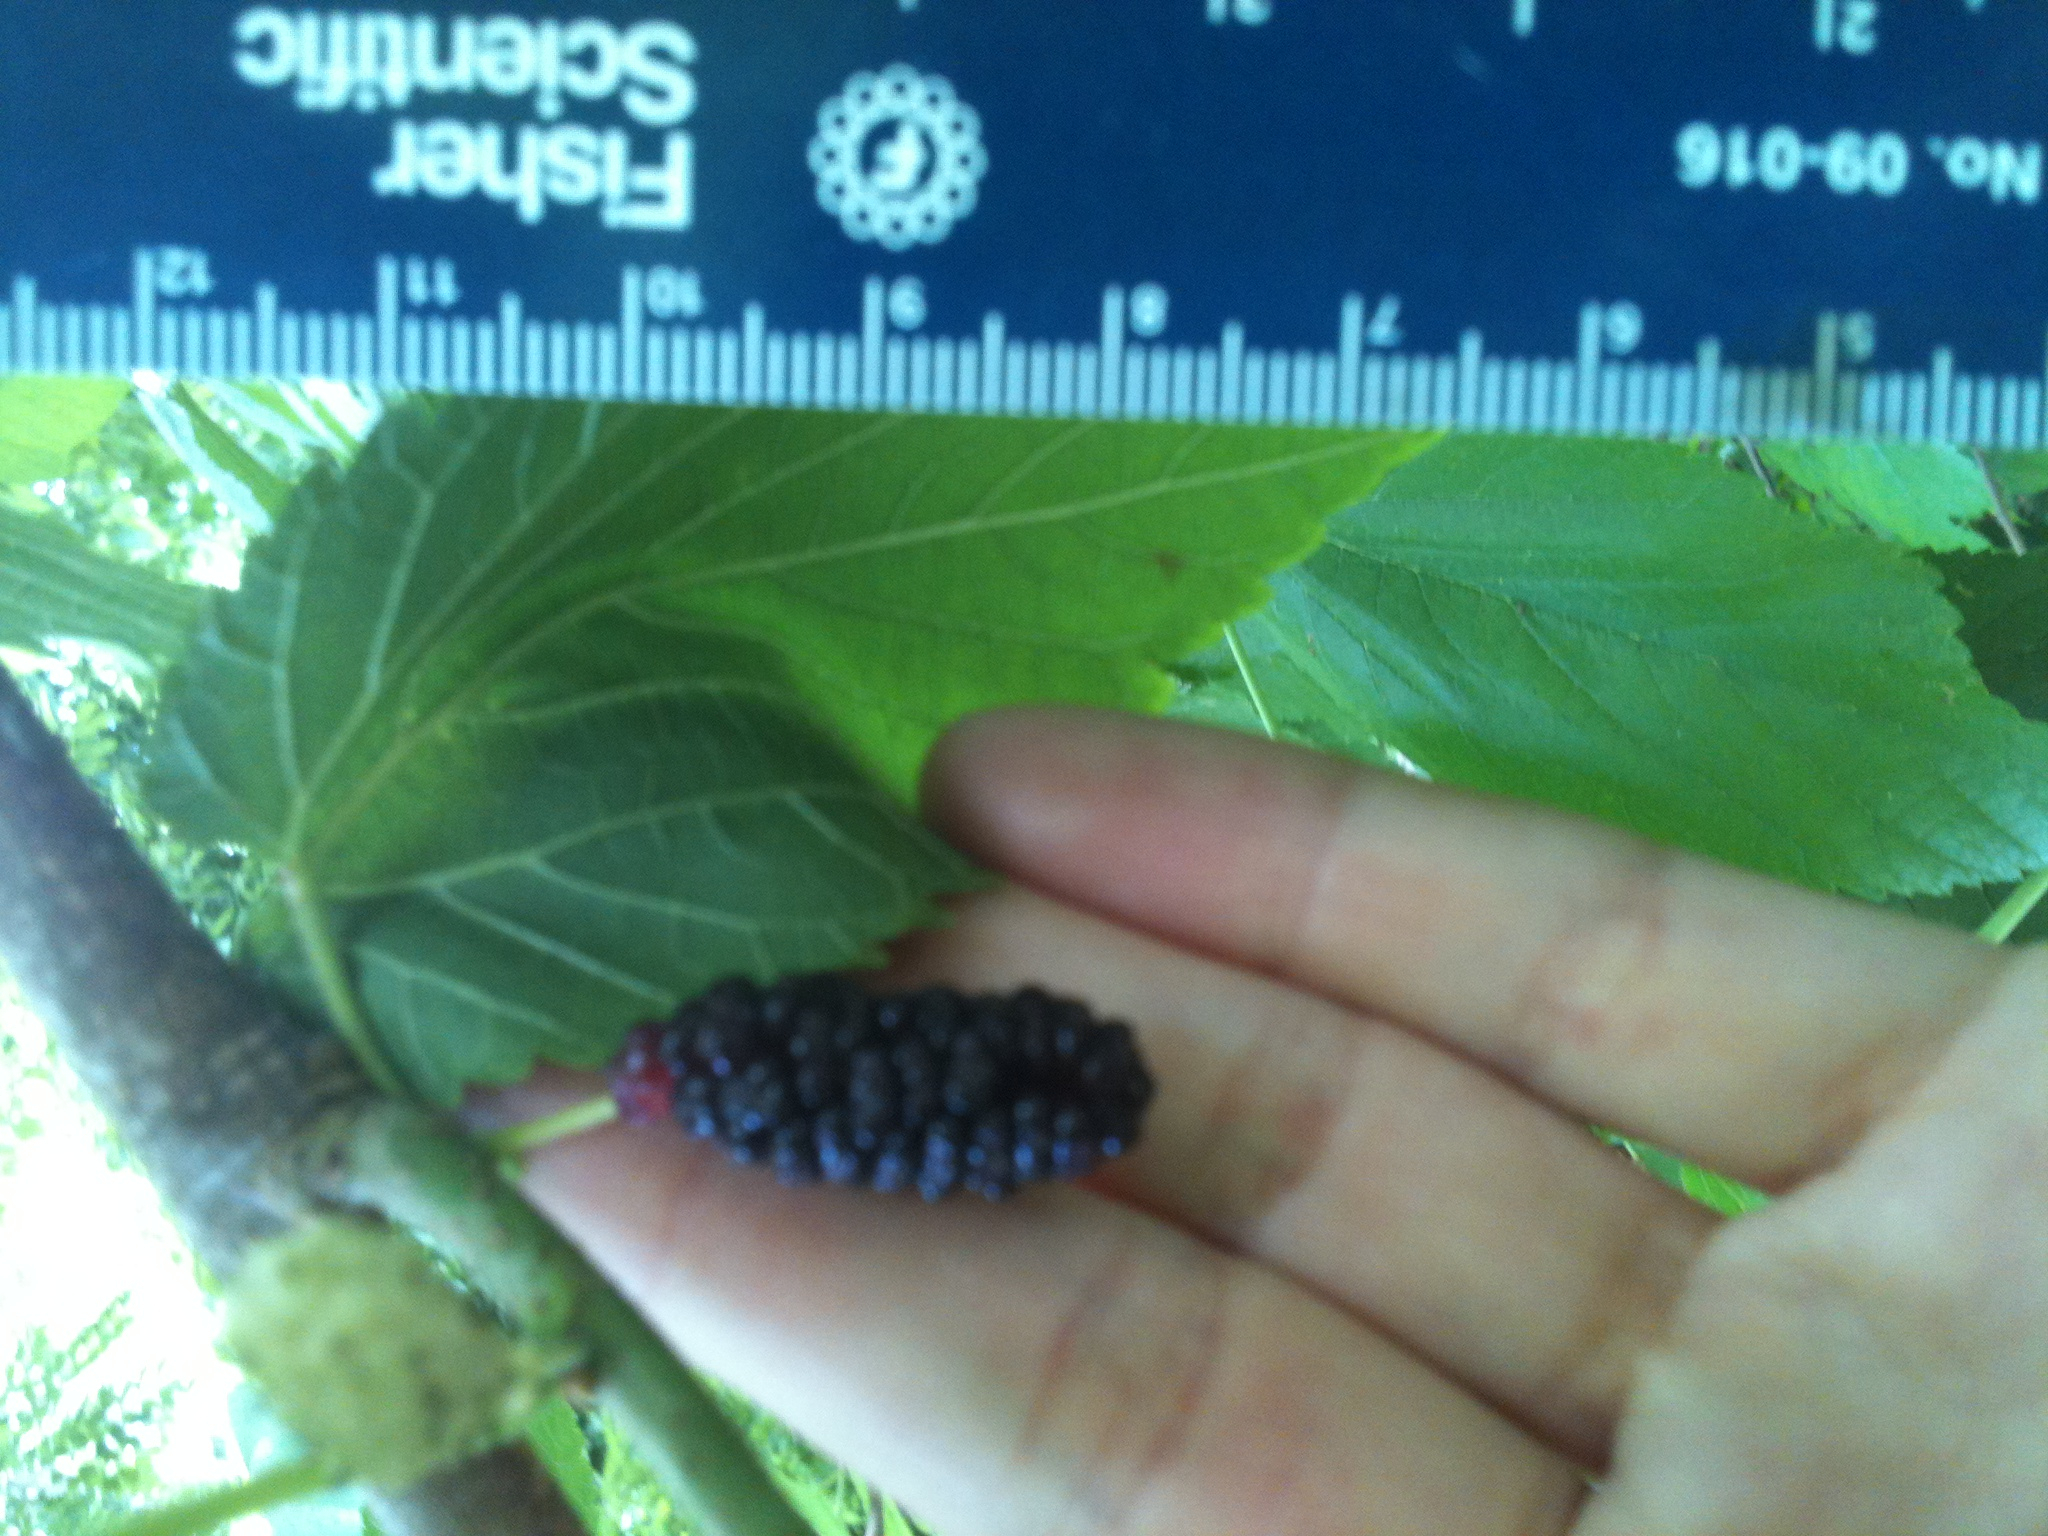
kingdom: Plantae
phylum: Tracheophyta
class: Magnoliopsida
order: Rosales
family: Moraceae
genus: Morus
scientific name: Morus alba
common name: White mulberry
